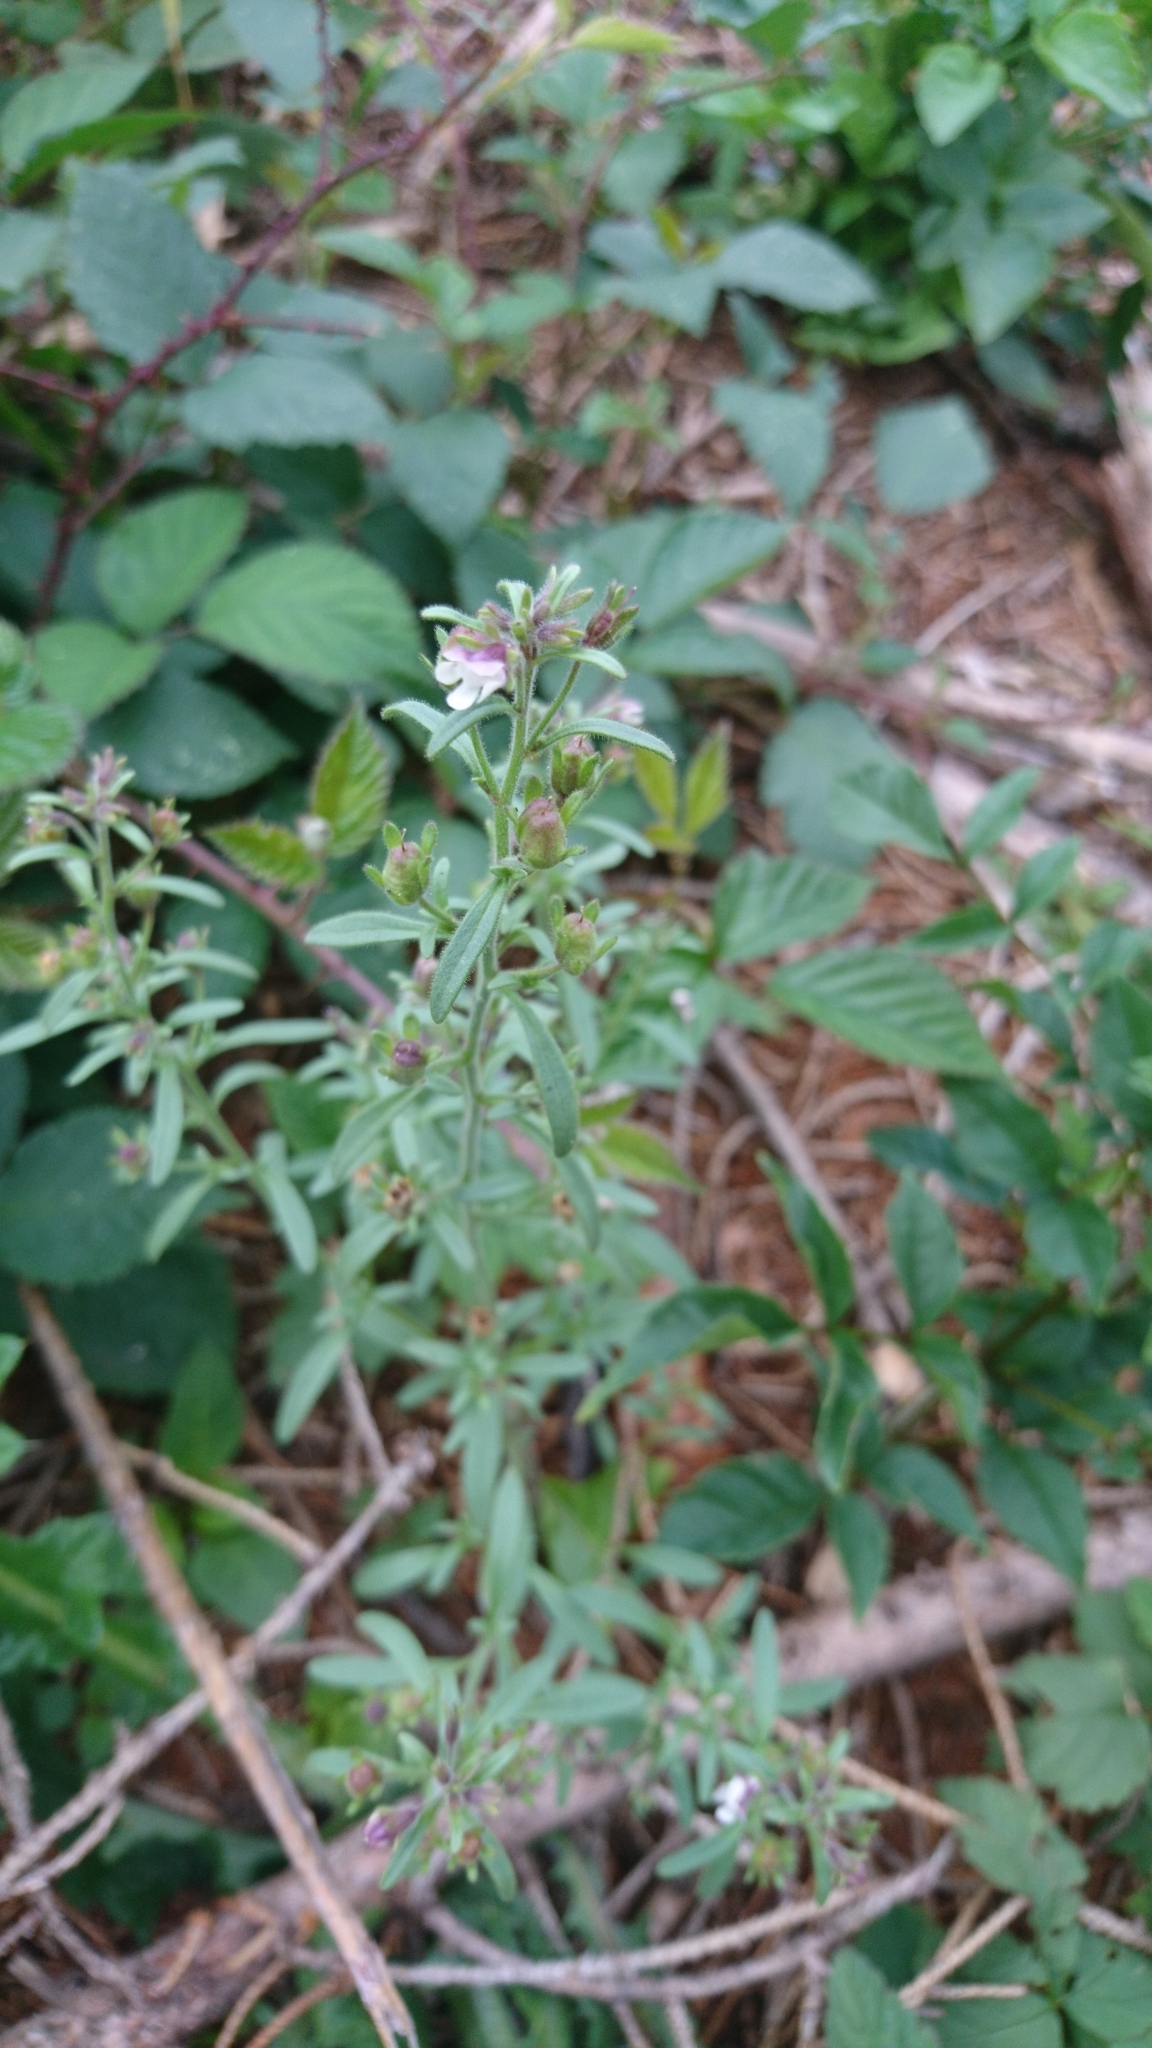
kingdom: Plantae
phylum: Tracheophyta
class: Magnoliopsida
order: Lamiales
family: Plantaginaceae
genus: Chaenorhinum
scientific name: Chaenorhinum minus
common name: Dwarf snapdragon
